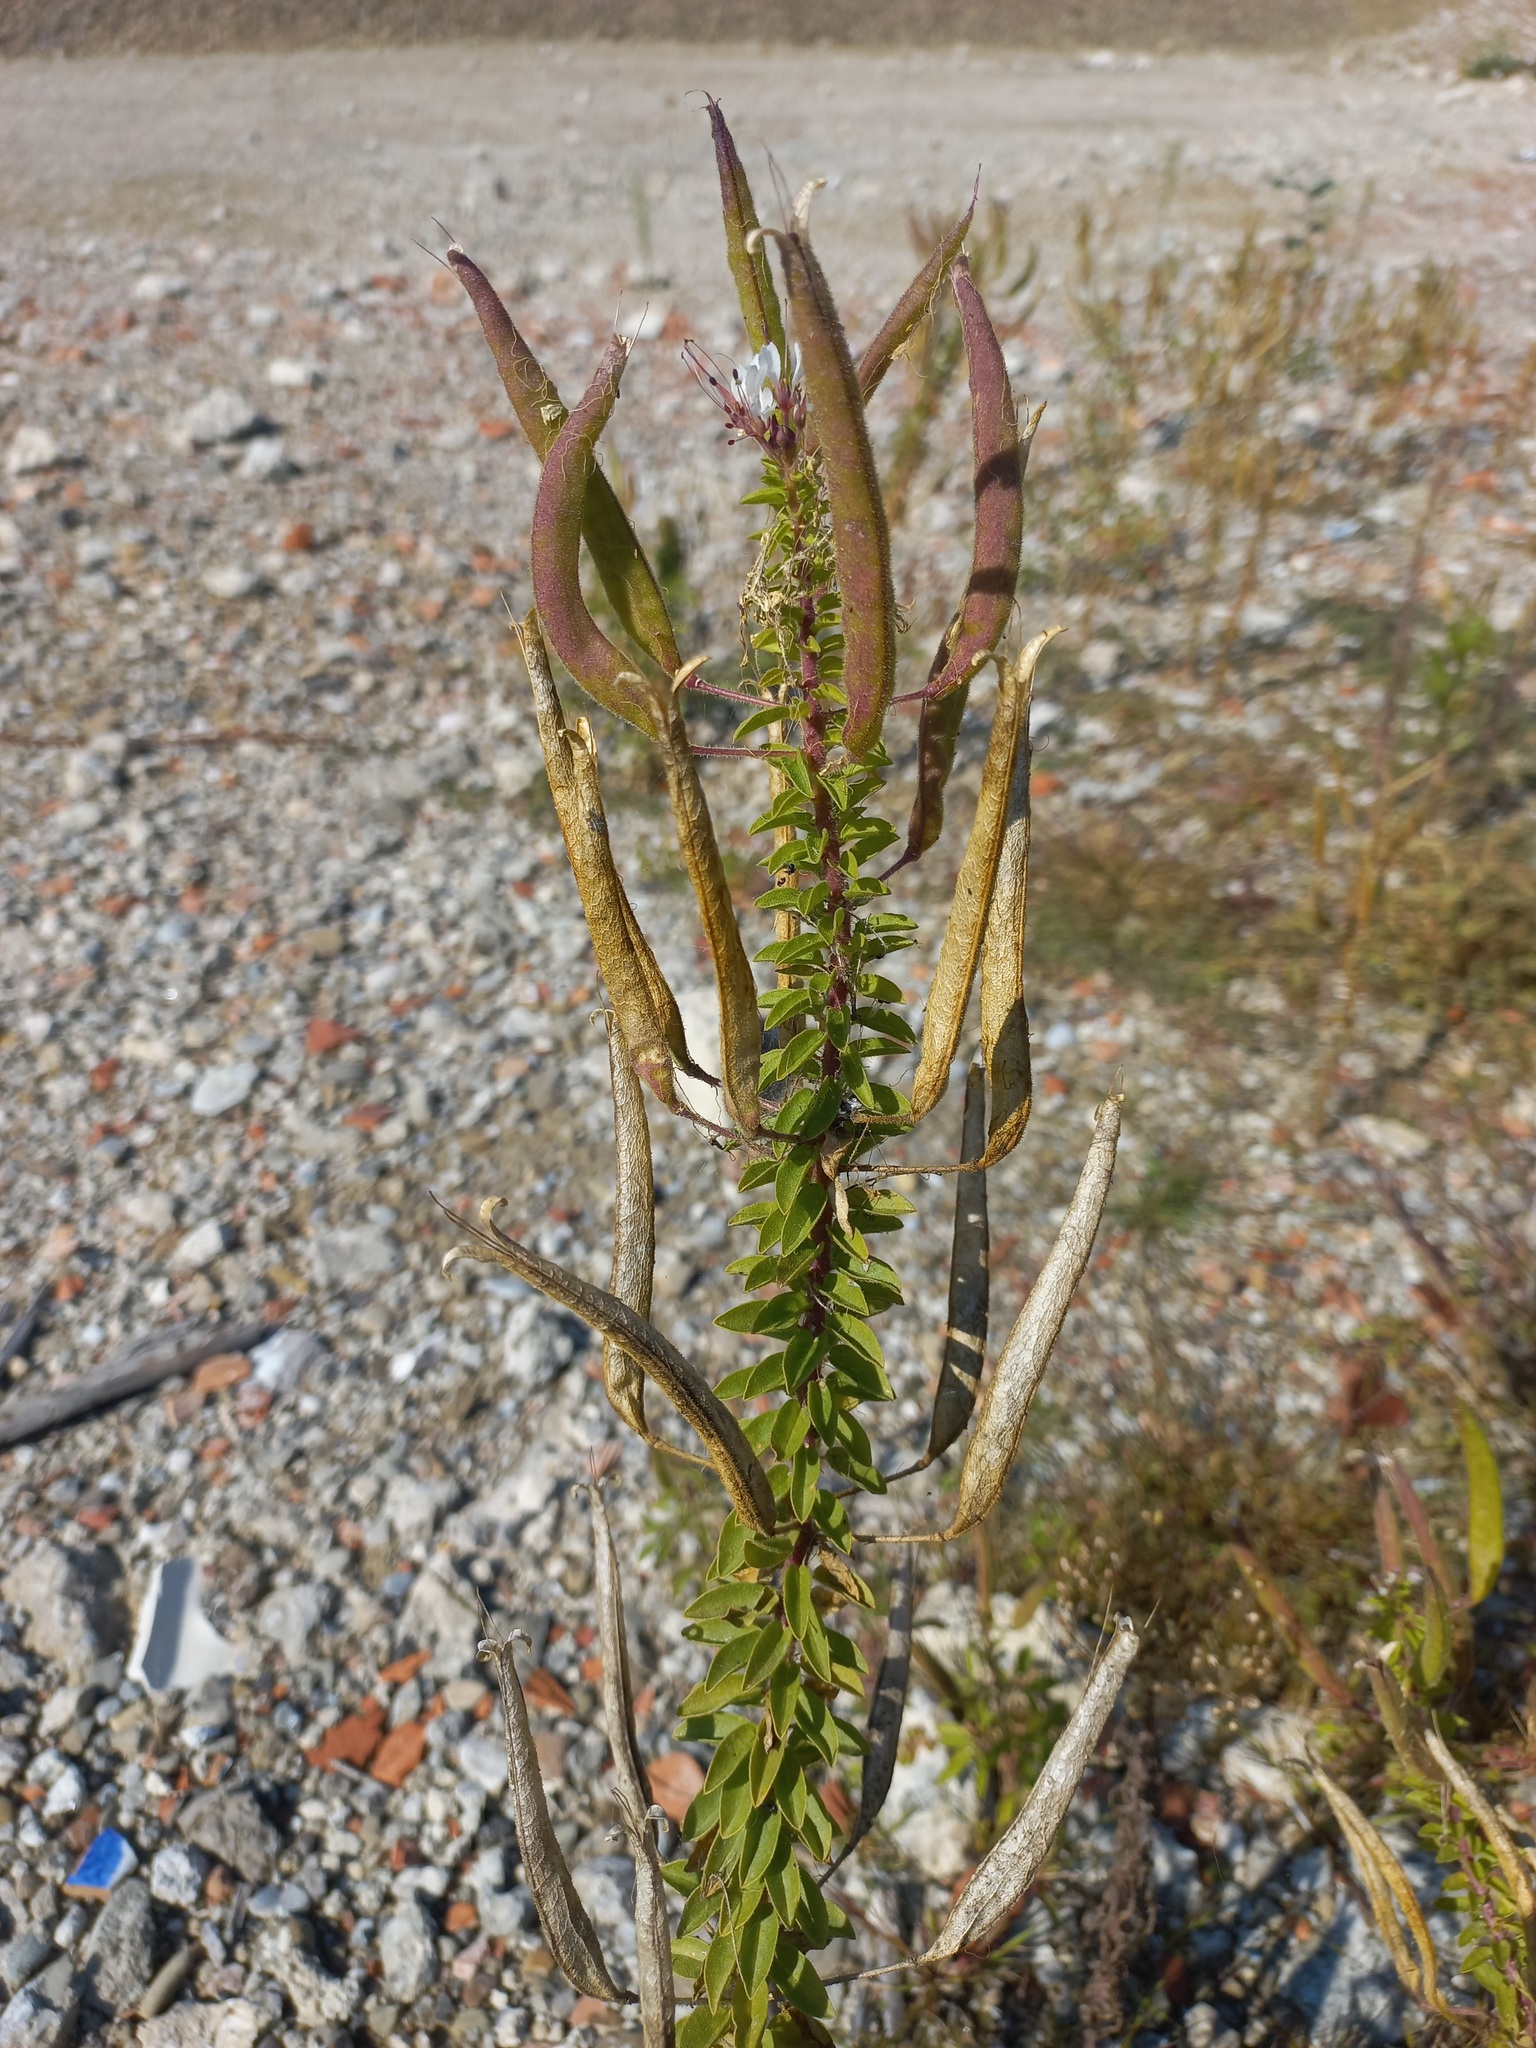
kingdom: Plantae
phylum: Tracheophyta
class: Magnoliopsida
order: Brassicales
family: Cleomaceae
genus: Polanisia
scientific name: Polanisia dodecandra
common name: Clammyweed
